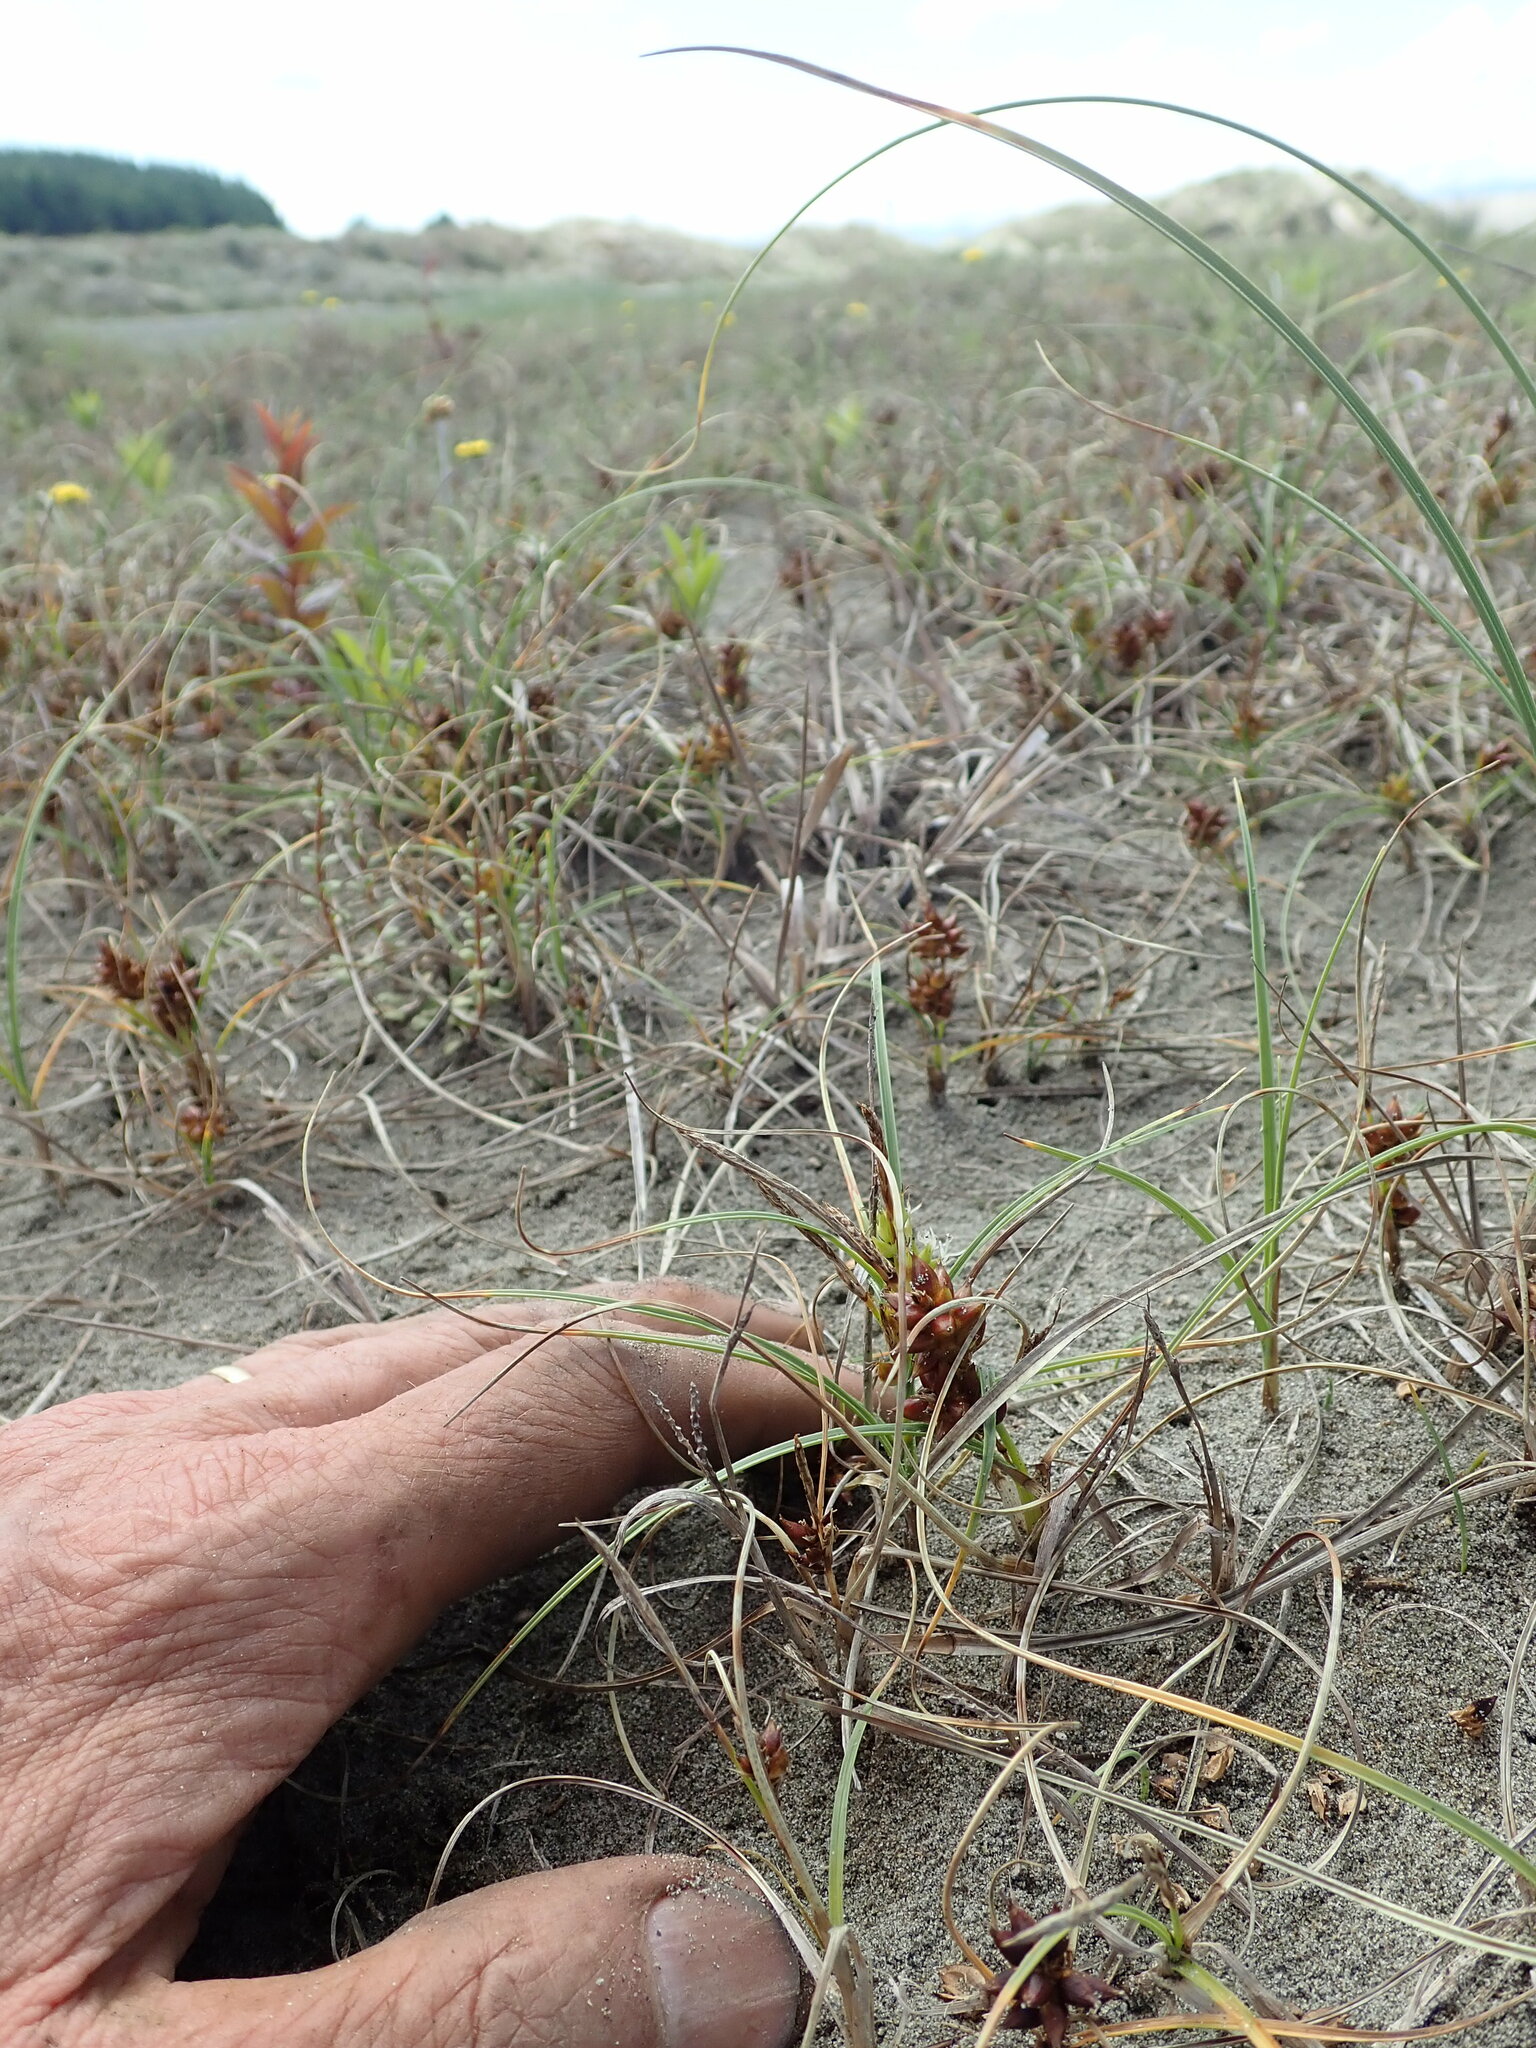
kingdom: Plantae
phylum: Tracheophyta
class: Liliopsida
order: Poales
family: Cyperaceae
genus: Carex
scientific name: Carex pumila
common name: Dwarf sedge
